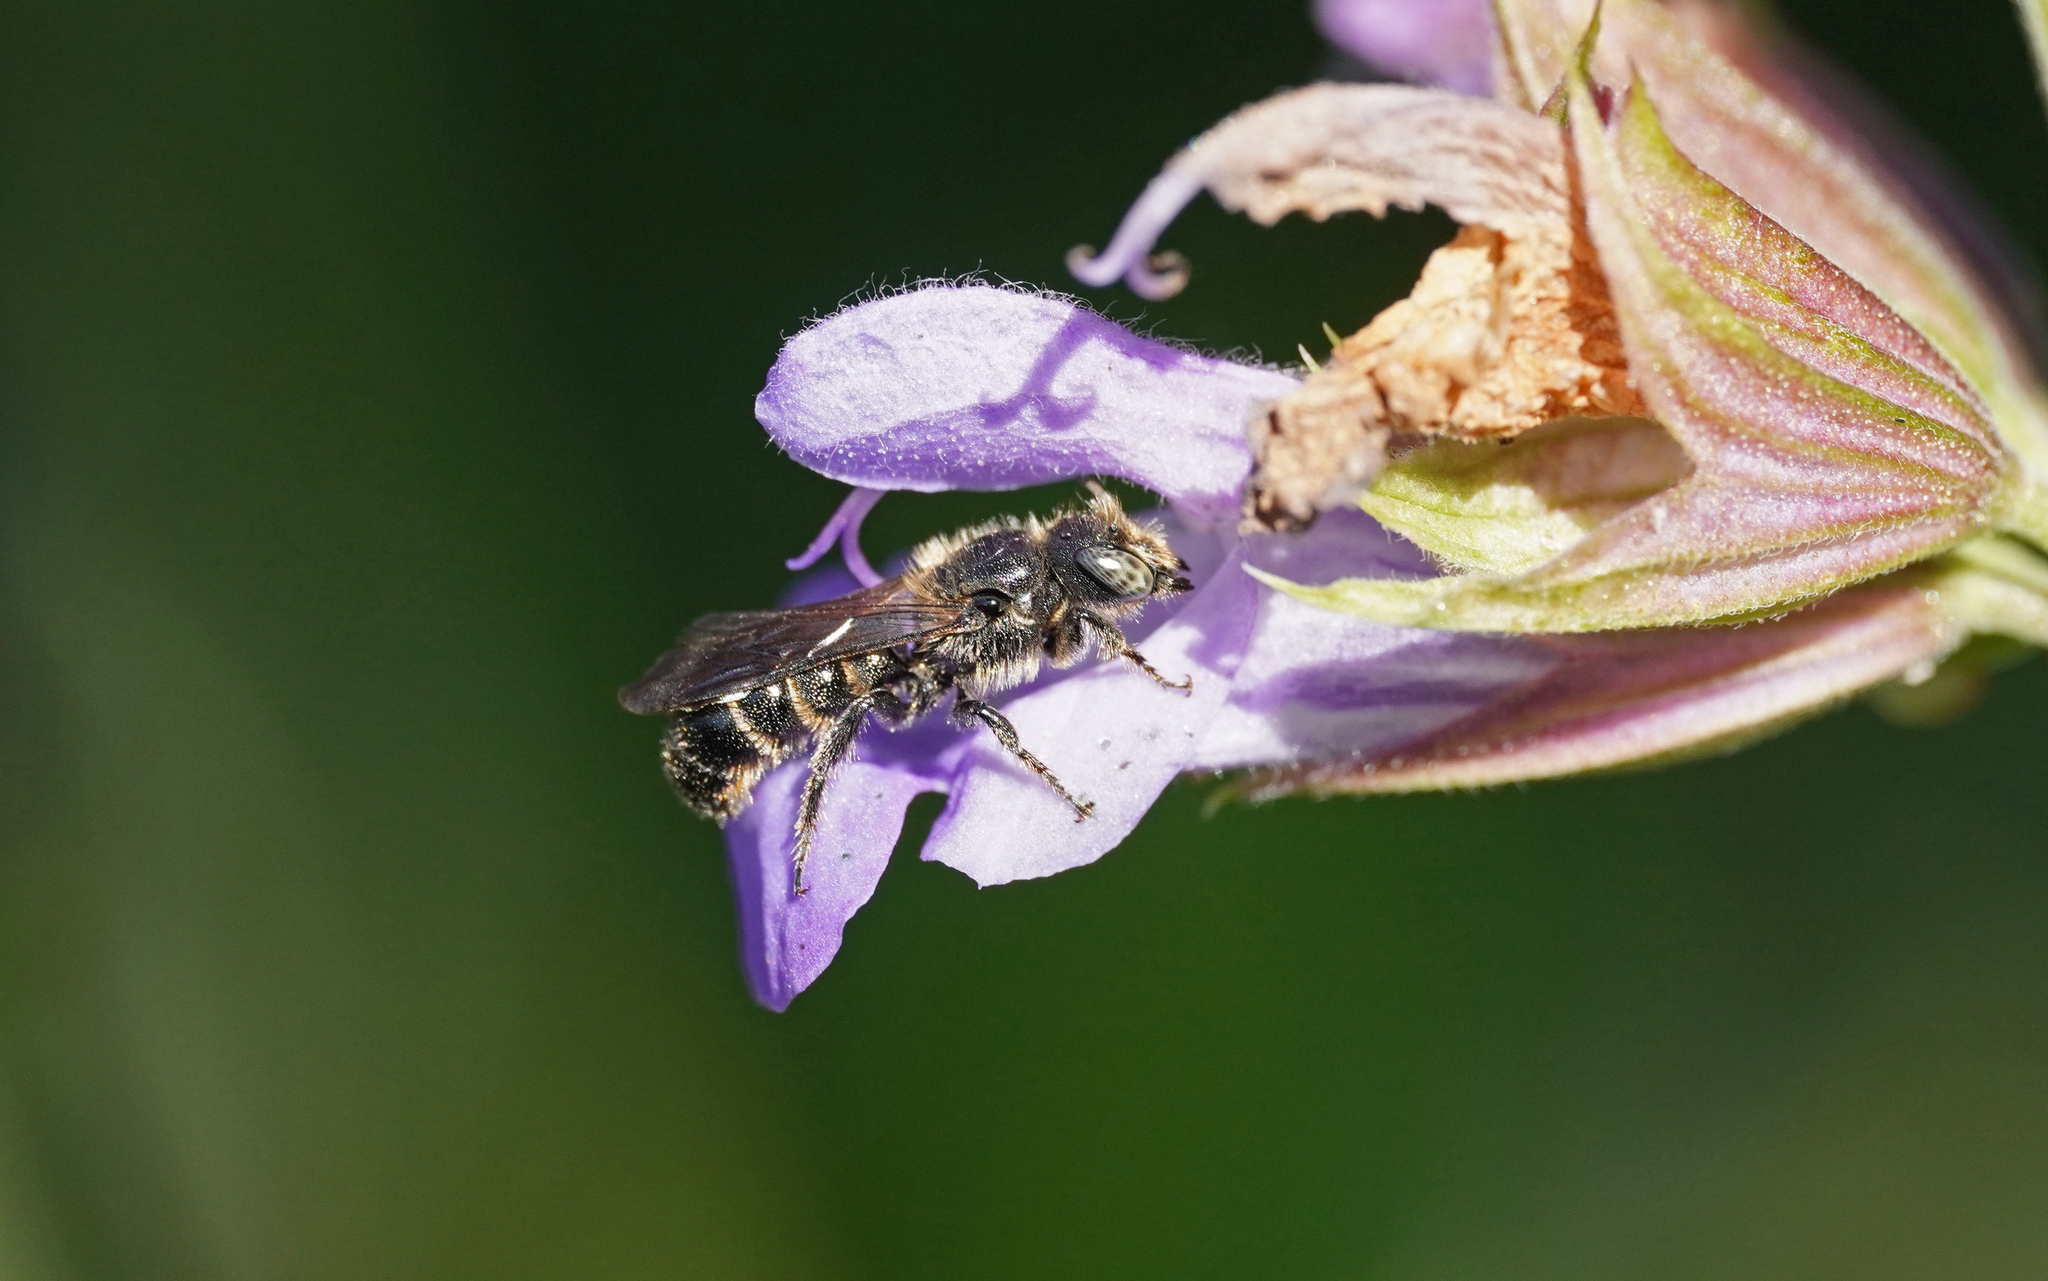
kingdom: Animalia
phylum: Arthropoda
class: Insecta
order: Hymenoptera
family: Megachilidae
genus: Chelostoma
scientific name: Chelostoma rapunculi
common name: Rampion scissor bee
